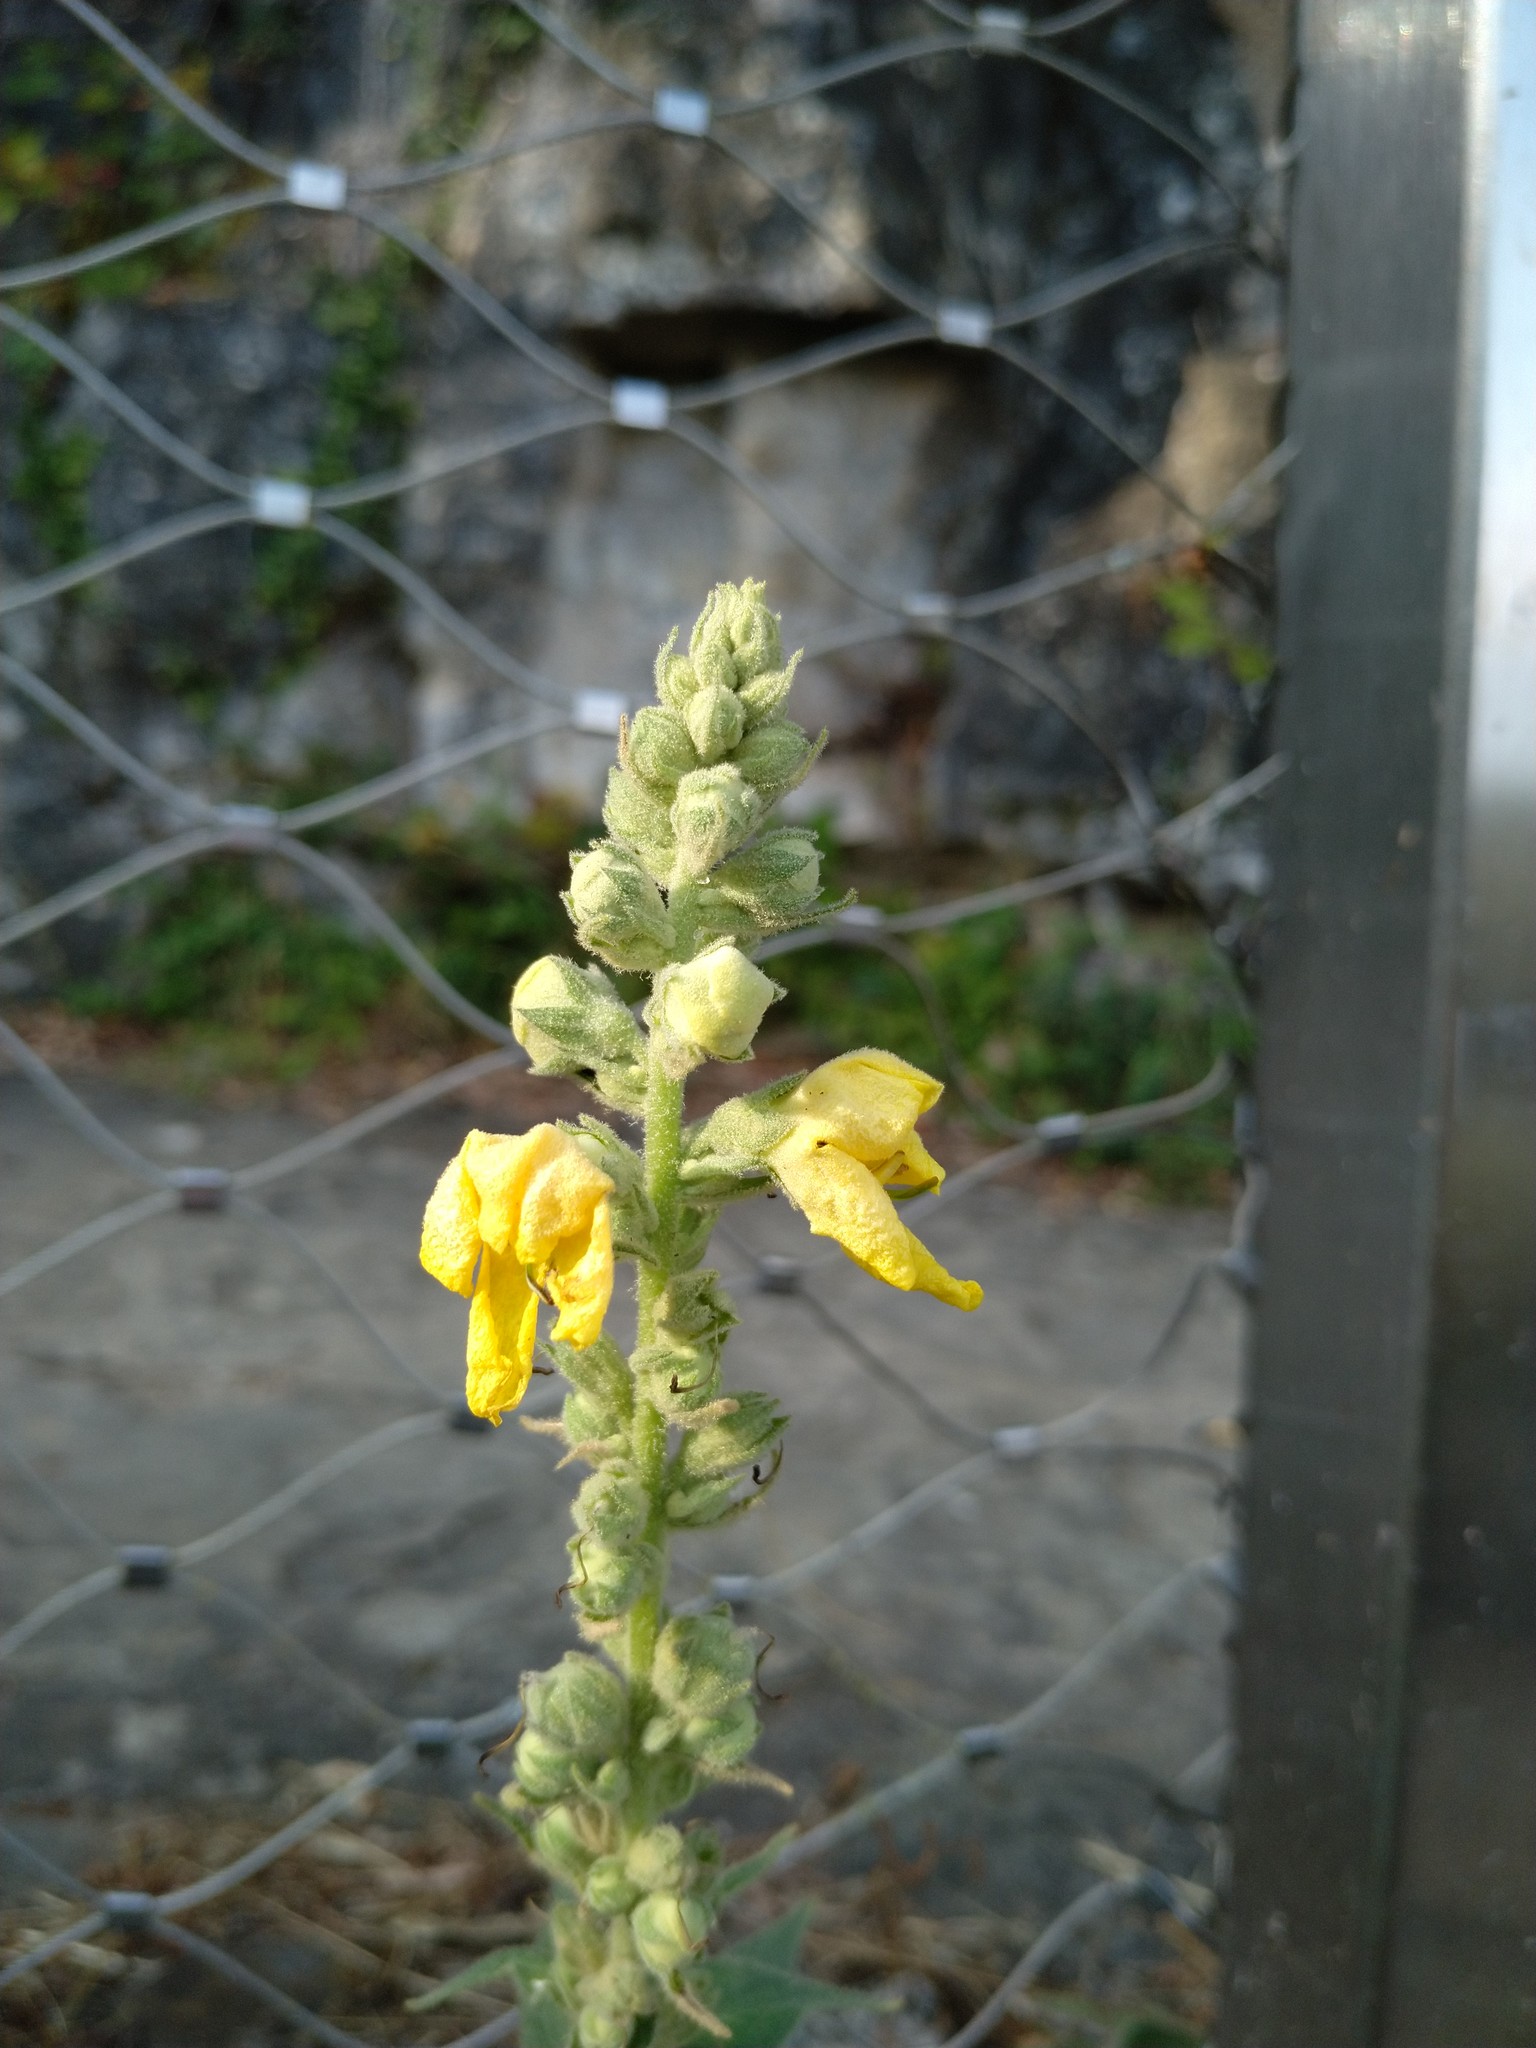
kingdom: Plantae
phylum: Tracheophyta
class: Magnoliopsida
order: Lamiales
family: Scrophulariaceae
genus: Verbascum
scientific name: Verbascum thapsus
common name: Common mullein
